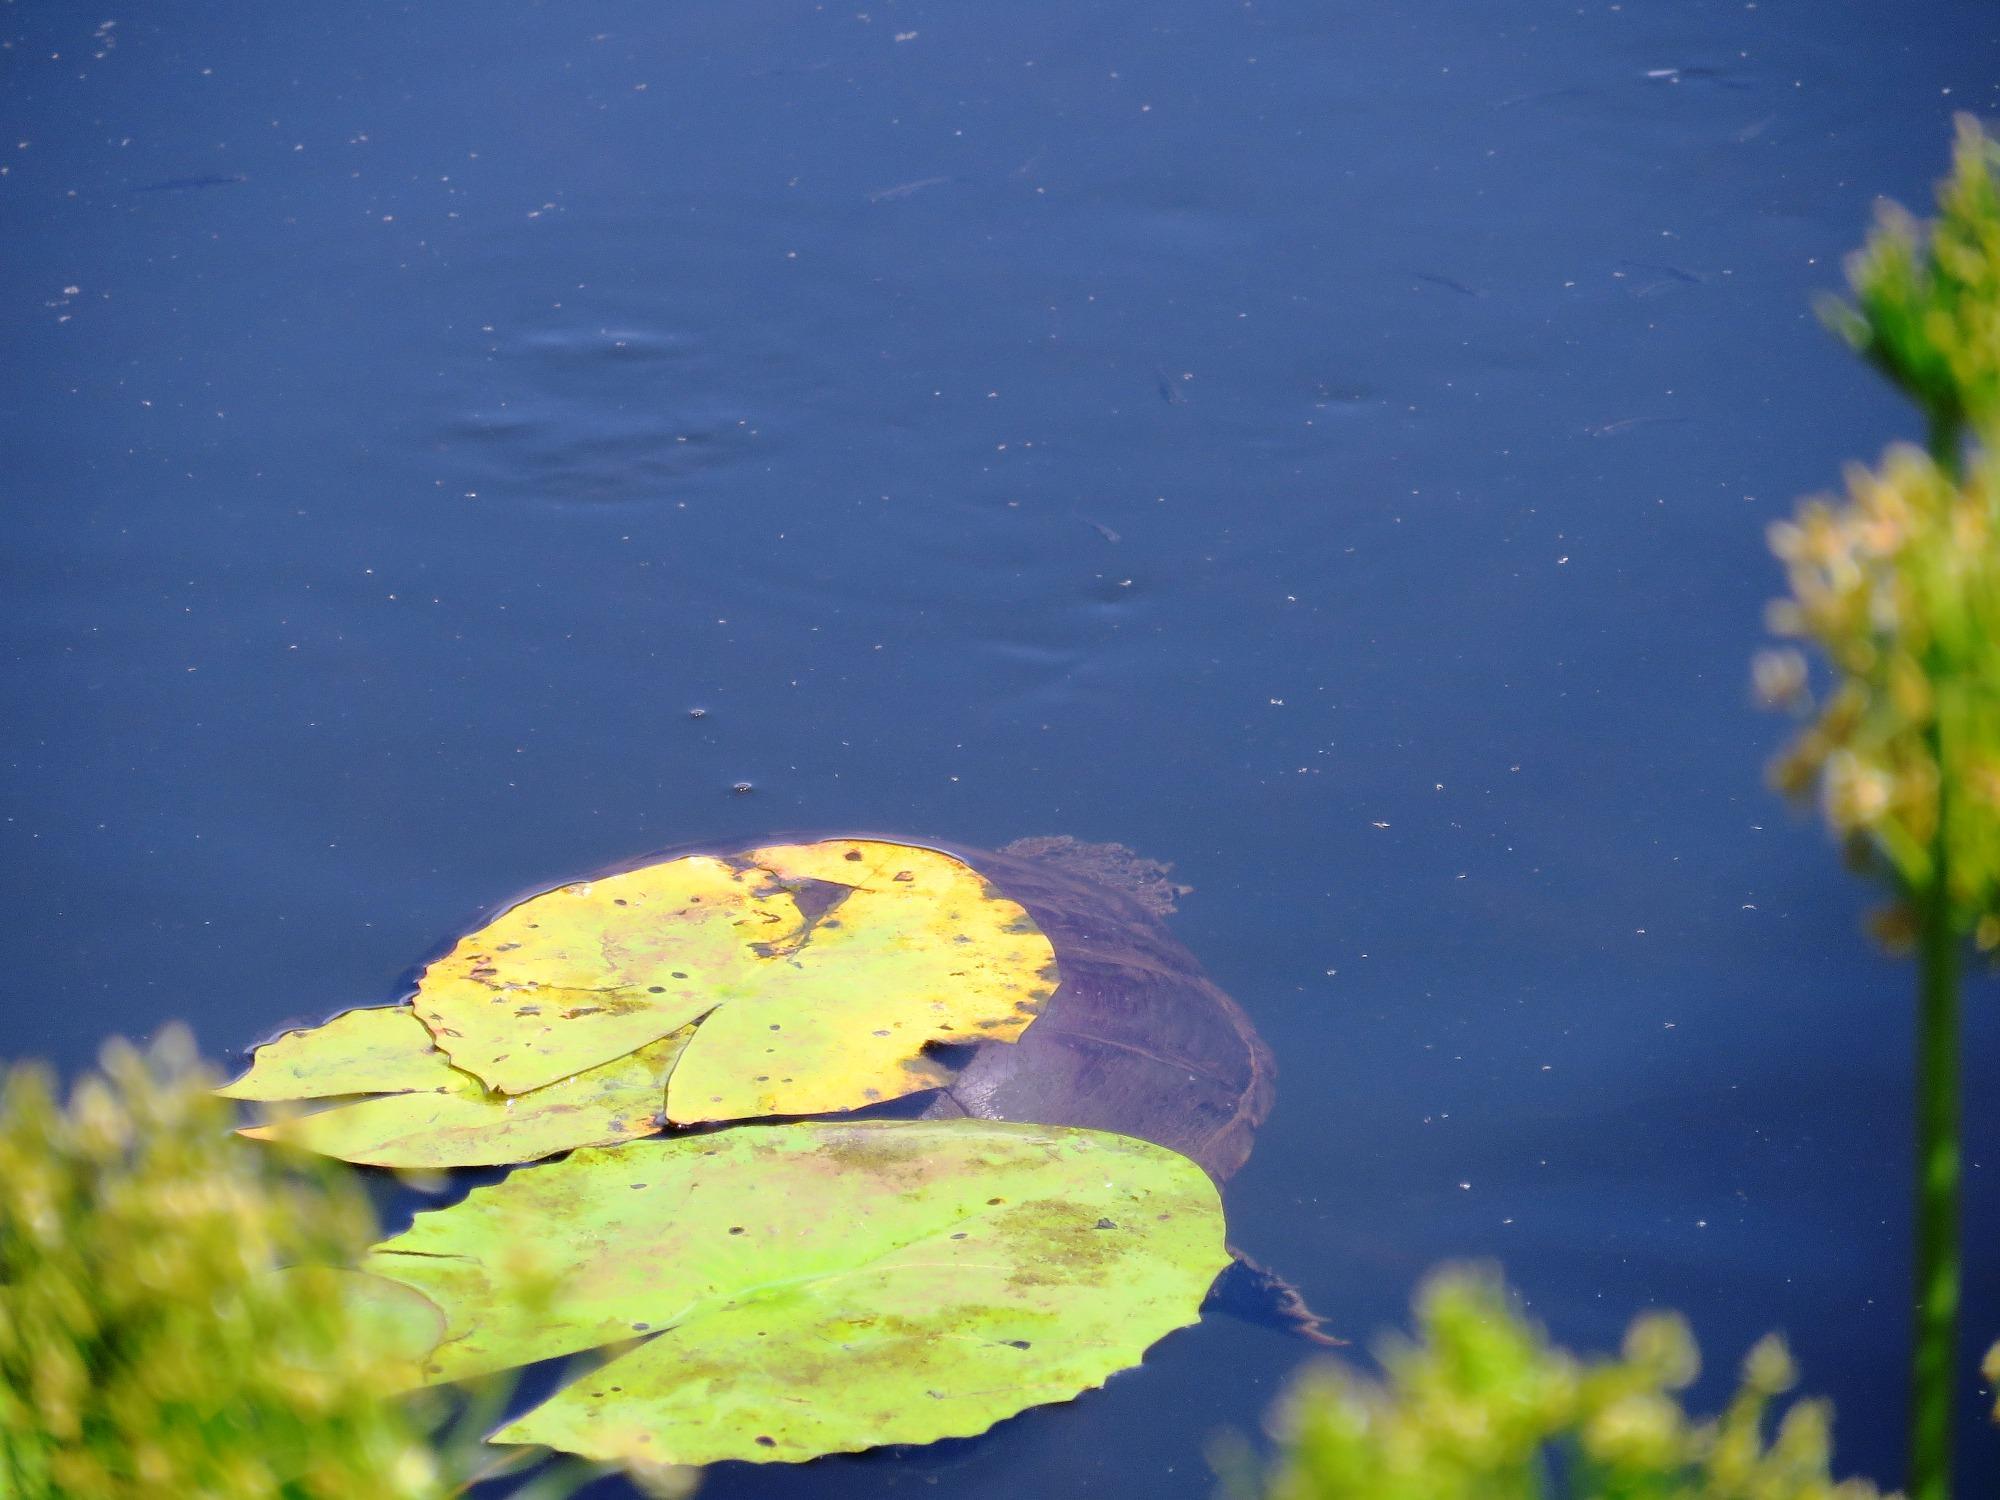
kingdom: Animalia
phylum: Chordata
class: Testudines
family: Pelomedusidae
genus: Pelomedusa
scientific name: Pelomedusa galeata
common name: South african helmeted terrapin
